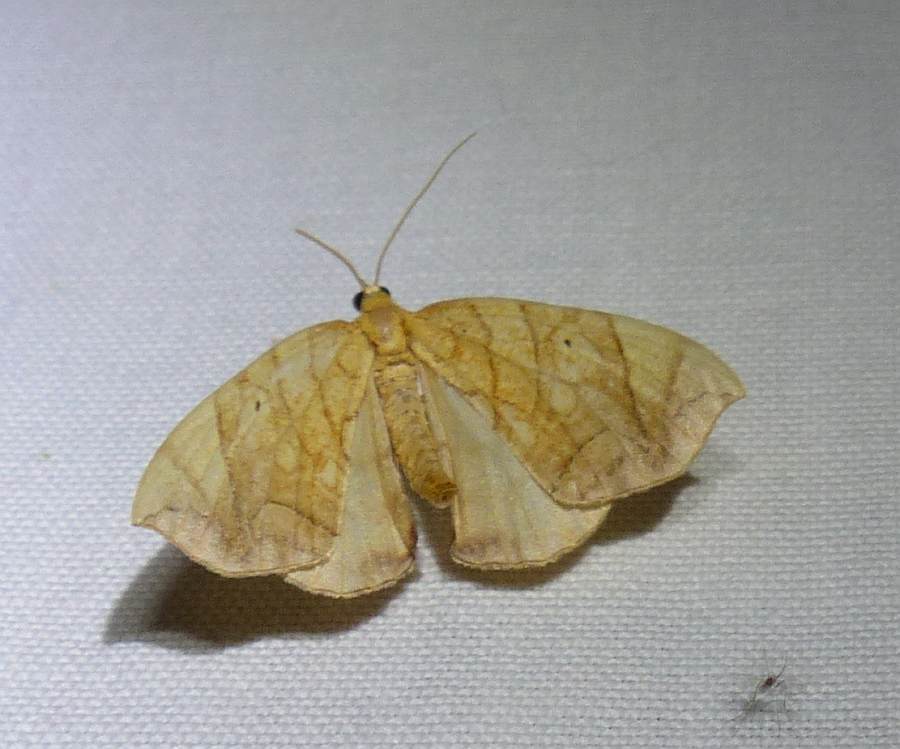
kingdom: Animalia
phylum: Arthropoda
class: Insecta
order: Lepidoptera
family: Geometridae
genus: Eulithis
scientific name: Eulithis
